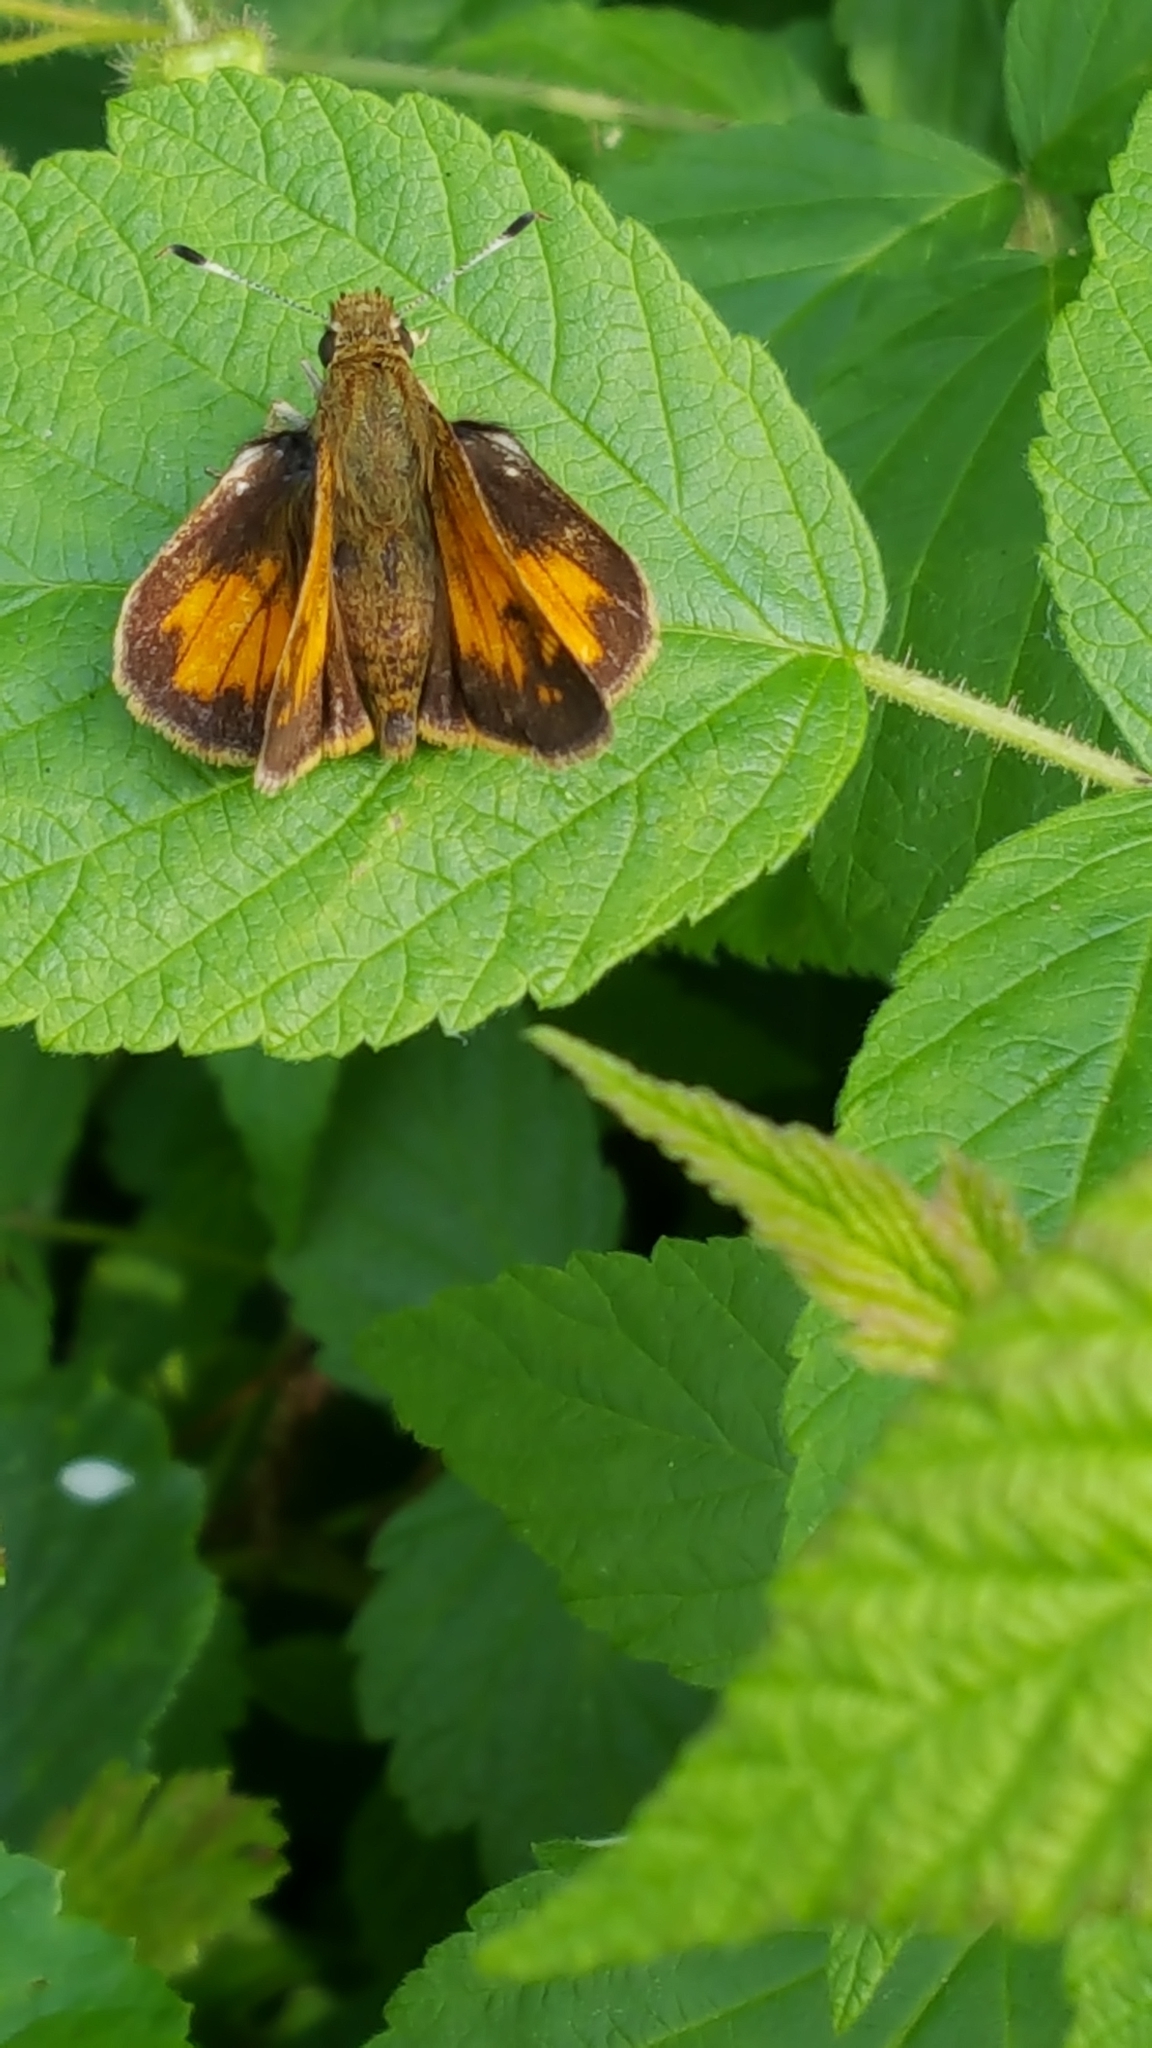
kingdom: Animalia
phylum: Arthropoda
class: Insecta
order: Lepidoptera
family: Hesperiidae
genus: Lon
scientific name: Lon hobomok
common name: Hobomok skipper
